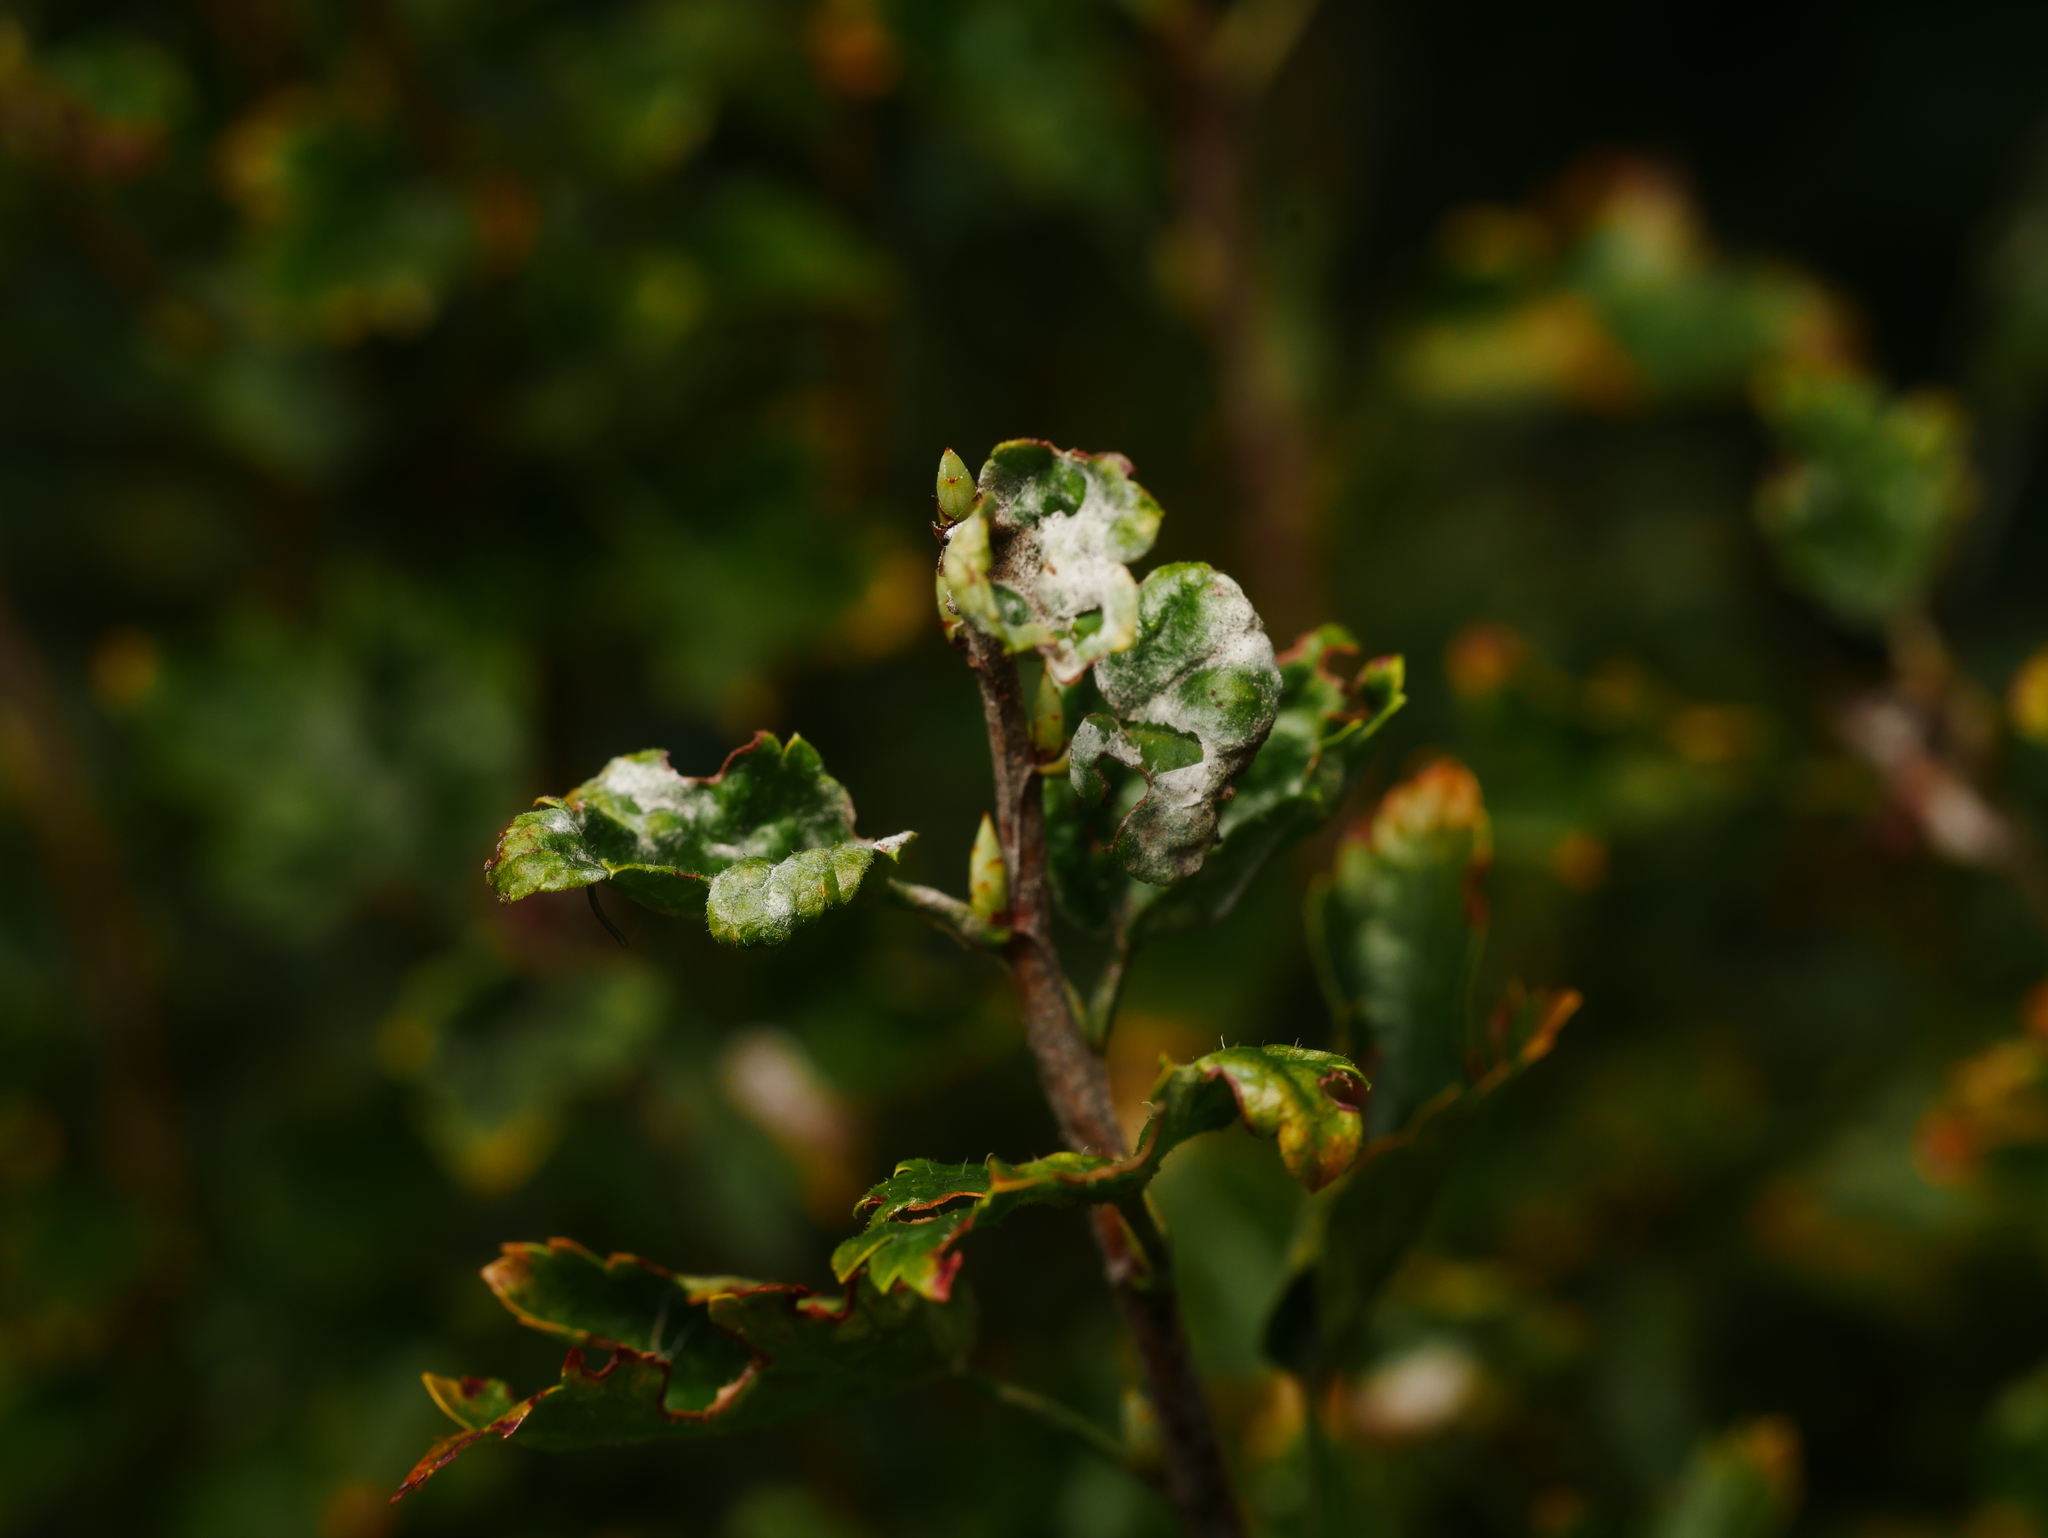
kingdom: Fungi
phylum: Ascomycota
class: Leotiomycetes
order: Helotiales
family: Erysiphaceae
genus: Podosphaera
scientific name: Podosphaera mors-uvae
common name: American gooseberry mildew
